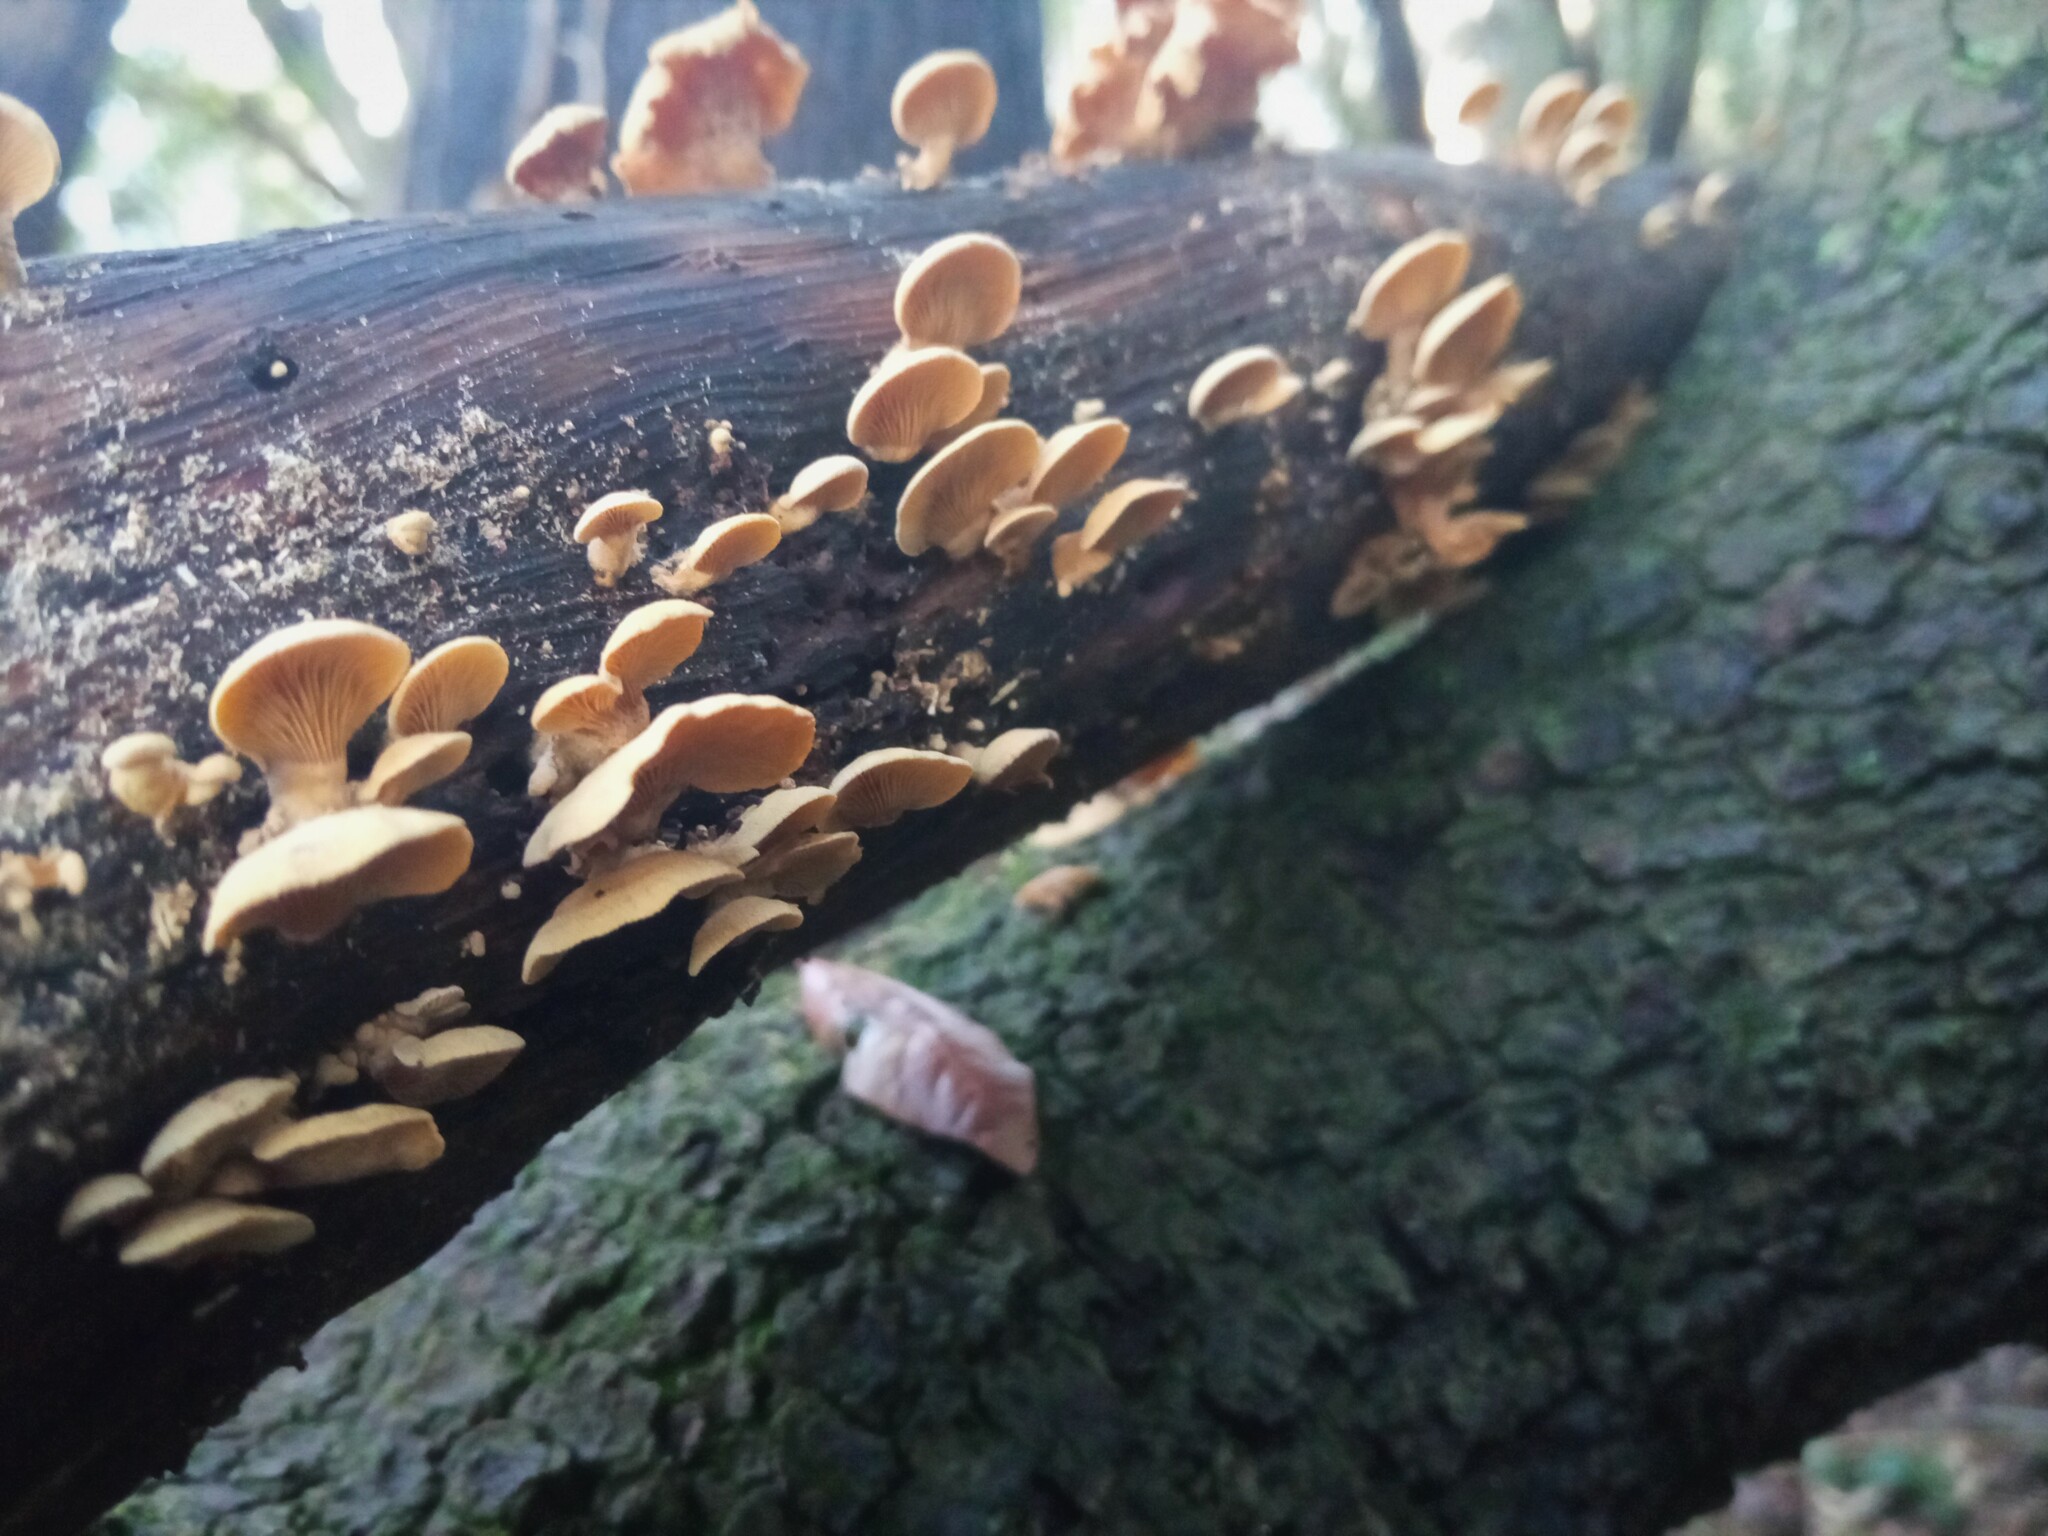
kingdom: Fungi
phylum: Basidiomycota
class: Agaricomycetes
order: Agaricales
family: Mycenaceae
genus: Panellus
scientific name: Panellus stipticus
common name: Bitter oysterling
